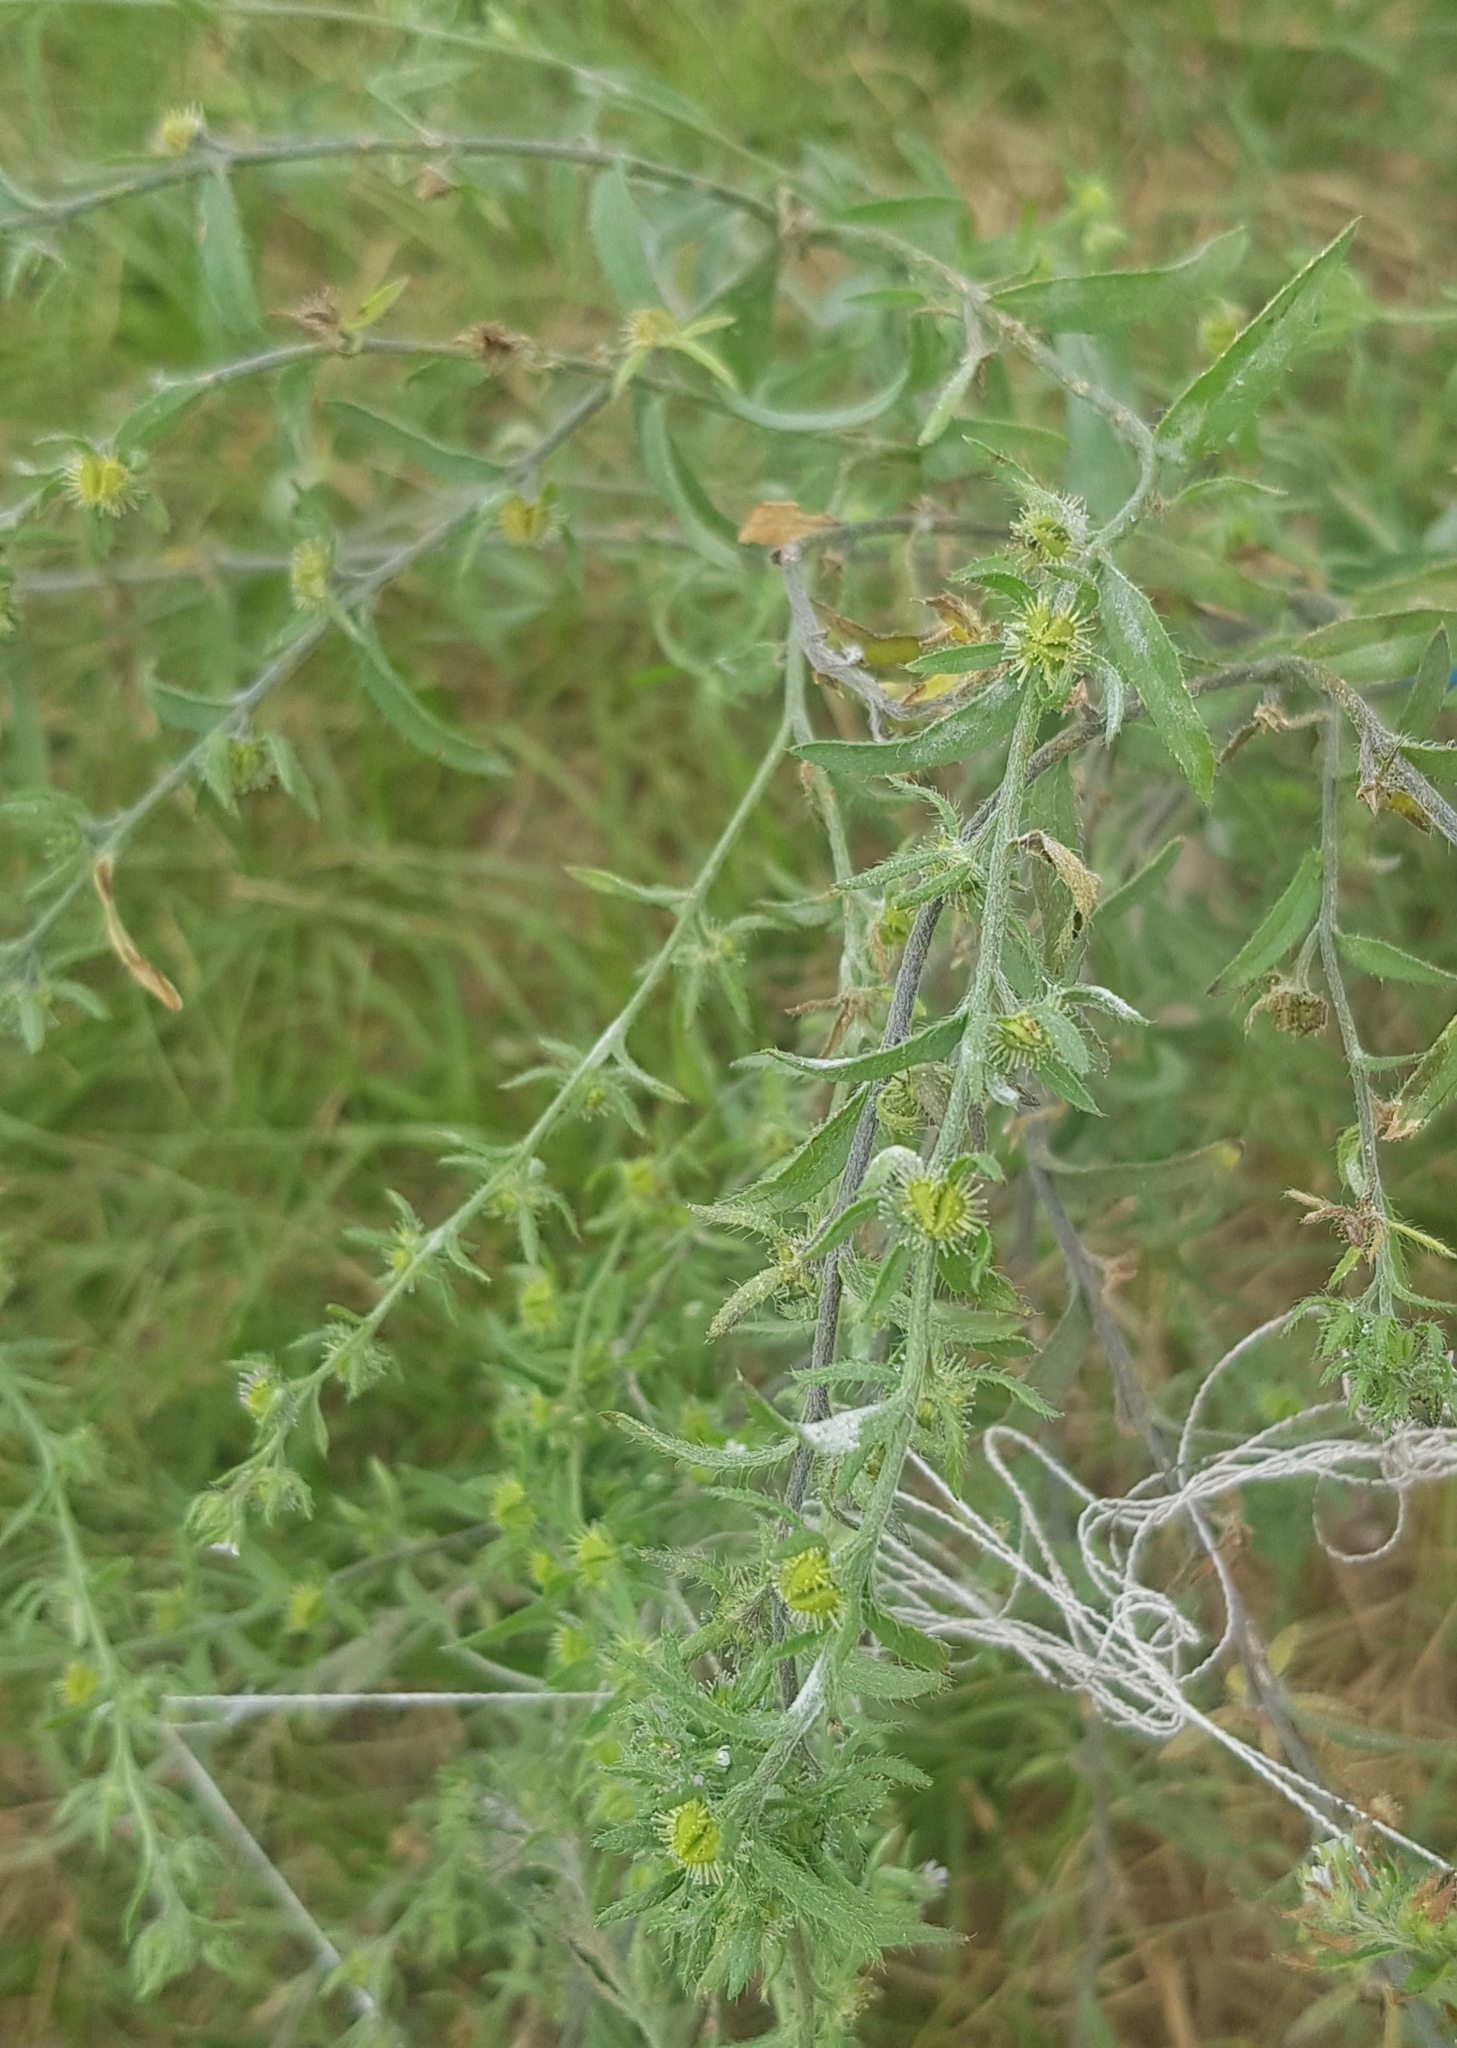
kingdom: Plantae
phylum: Tracheophyta
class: Magnoliopsida
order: Boraginales
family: Boraginaceae
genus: Lappula
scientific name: Lappula squarrosa
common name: European stickseed
